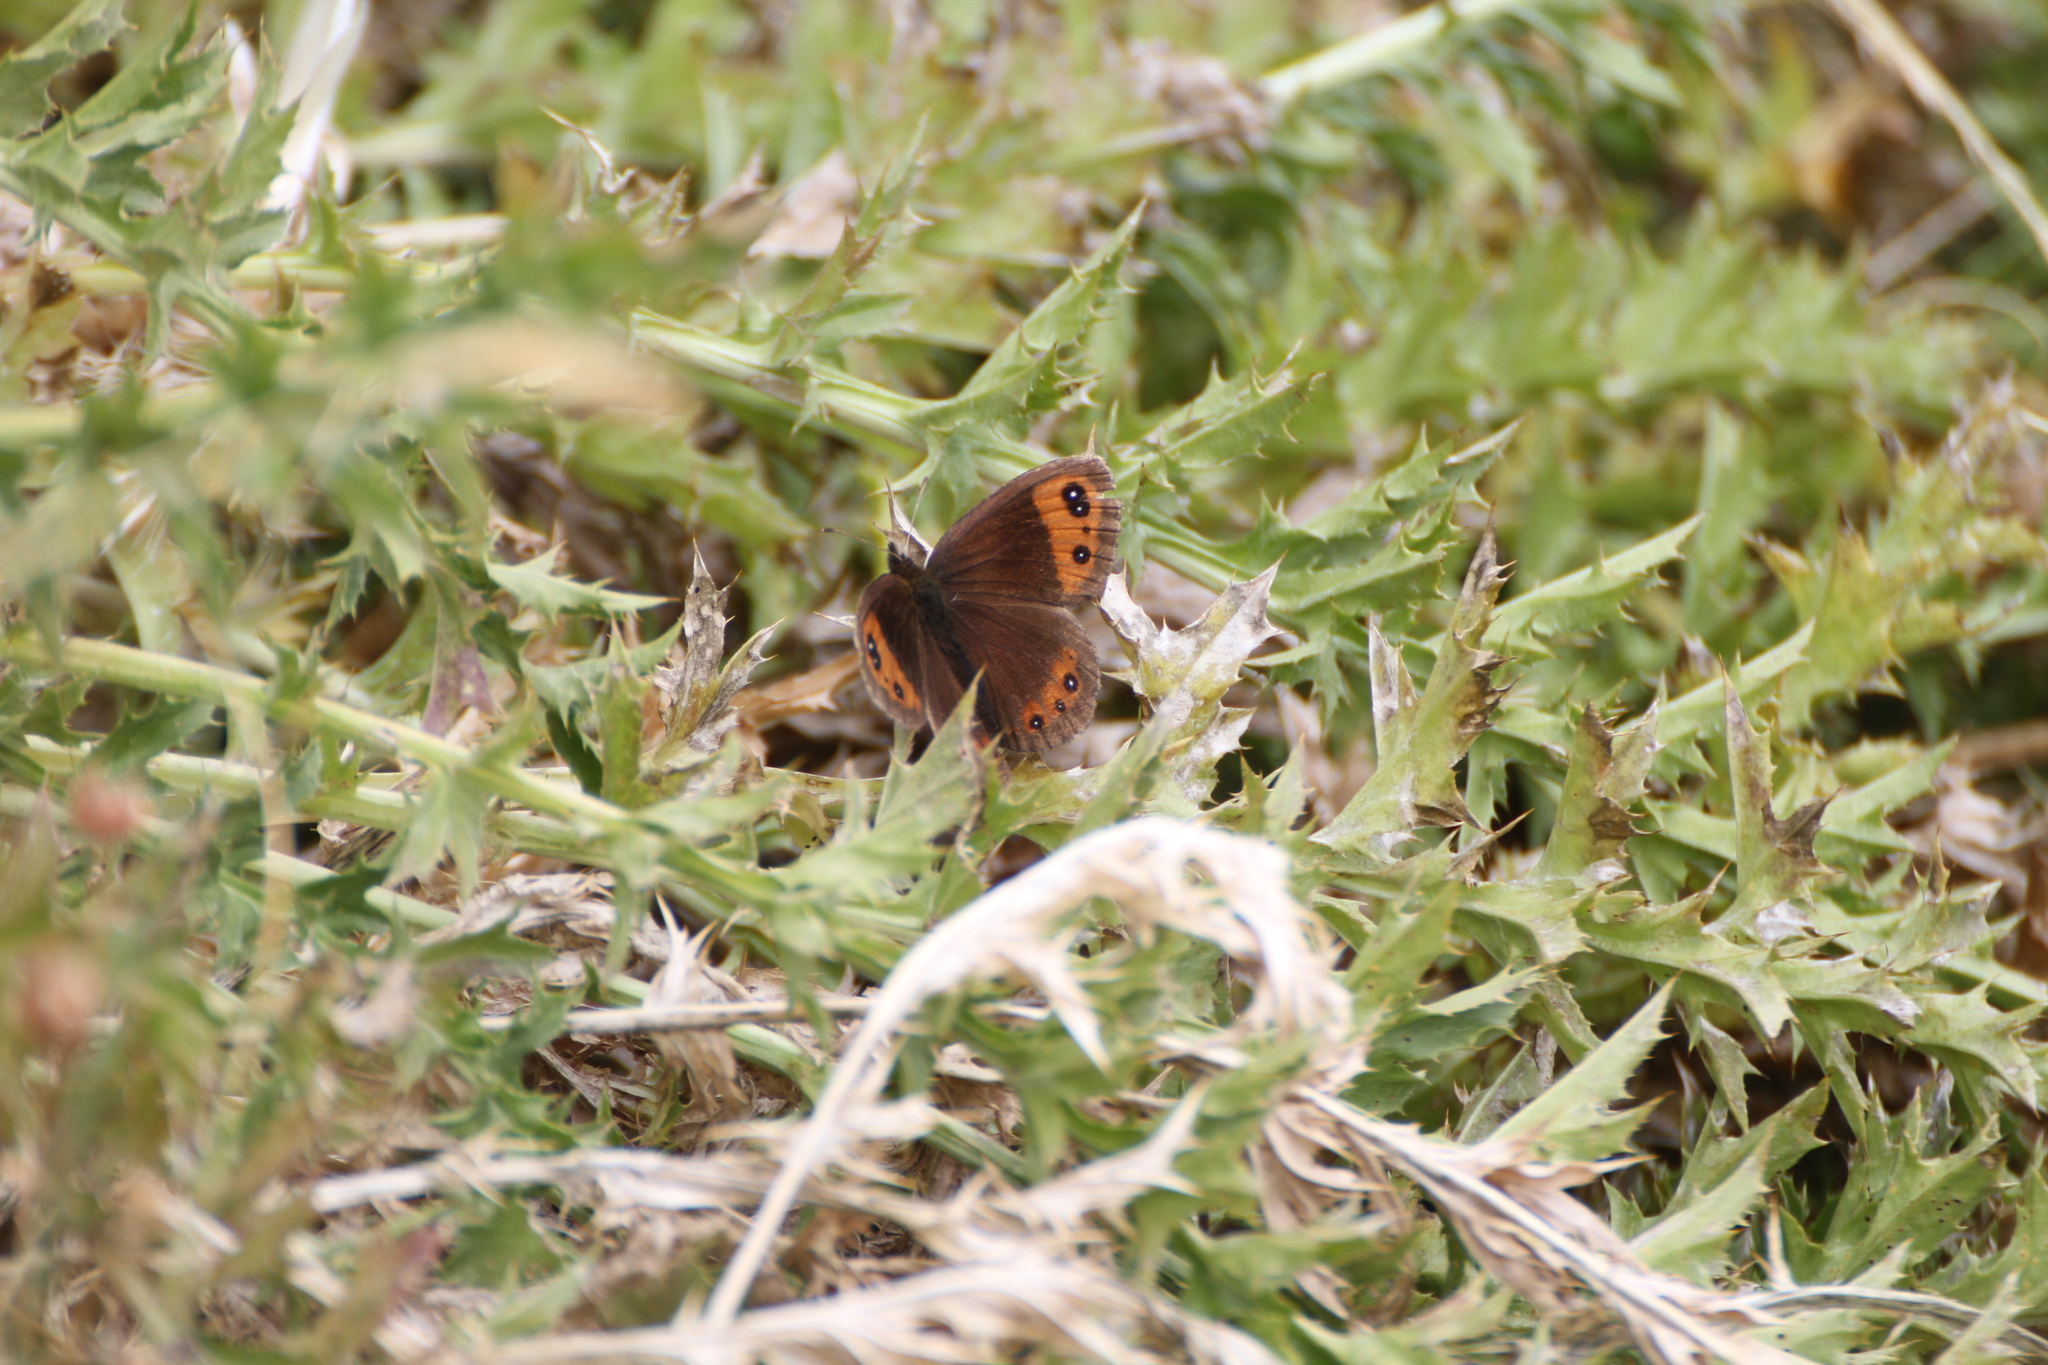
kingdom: Animalia
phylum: Arthropoda
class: Insecta
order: Lepidoptera
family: Nymphalidae
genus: Erebia
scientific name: Erebia neoridas
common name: Autumn ringlet
